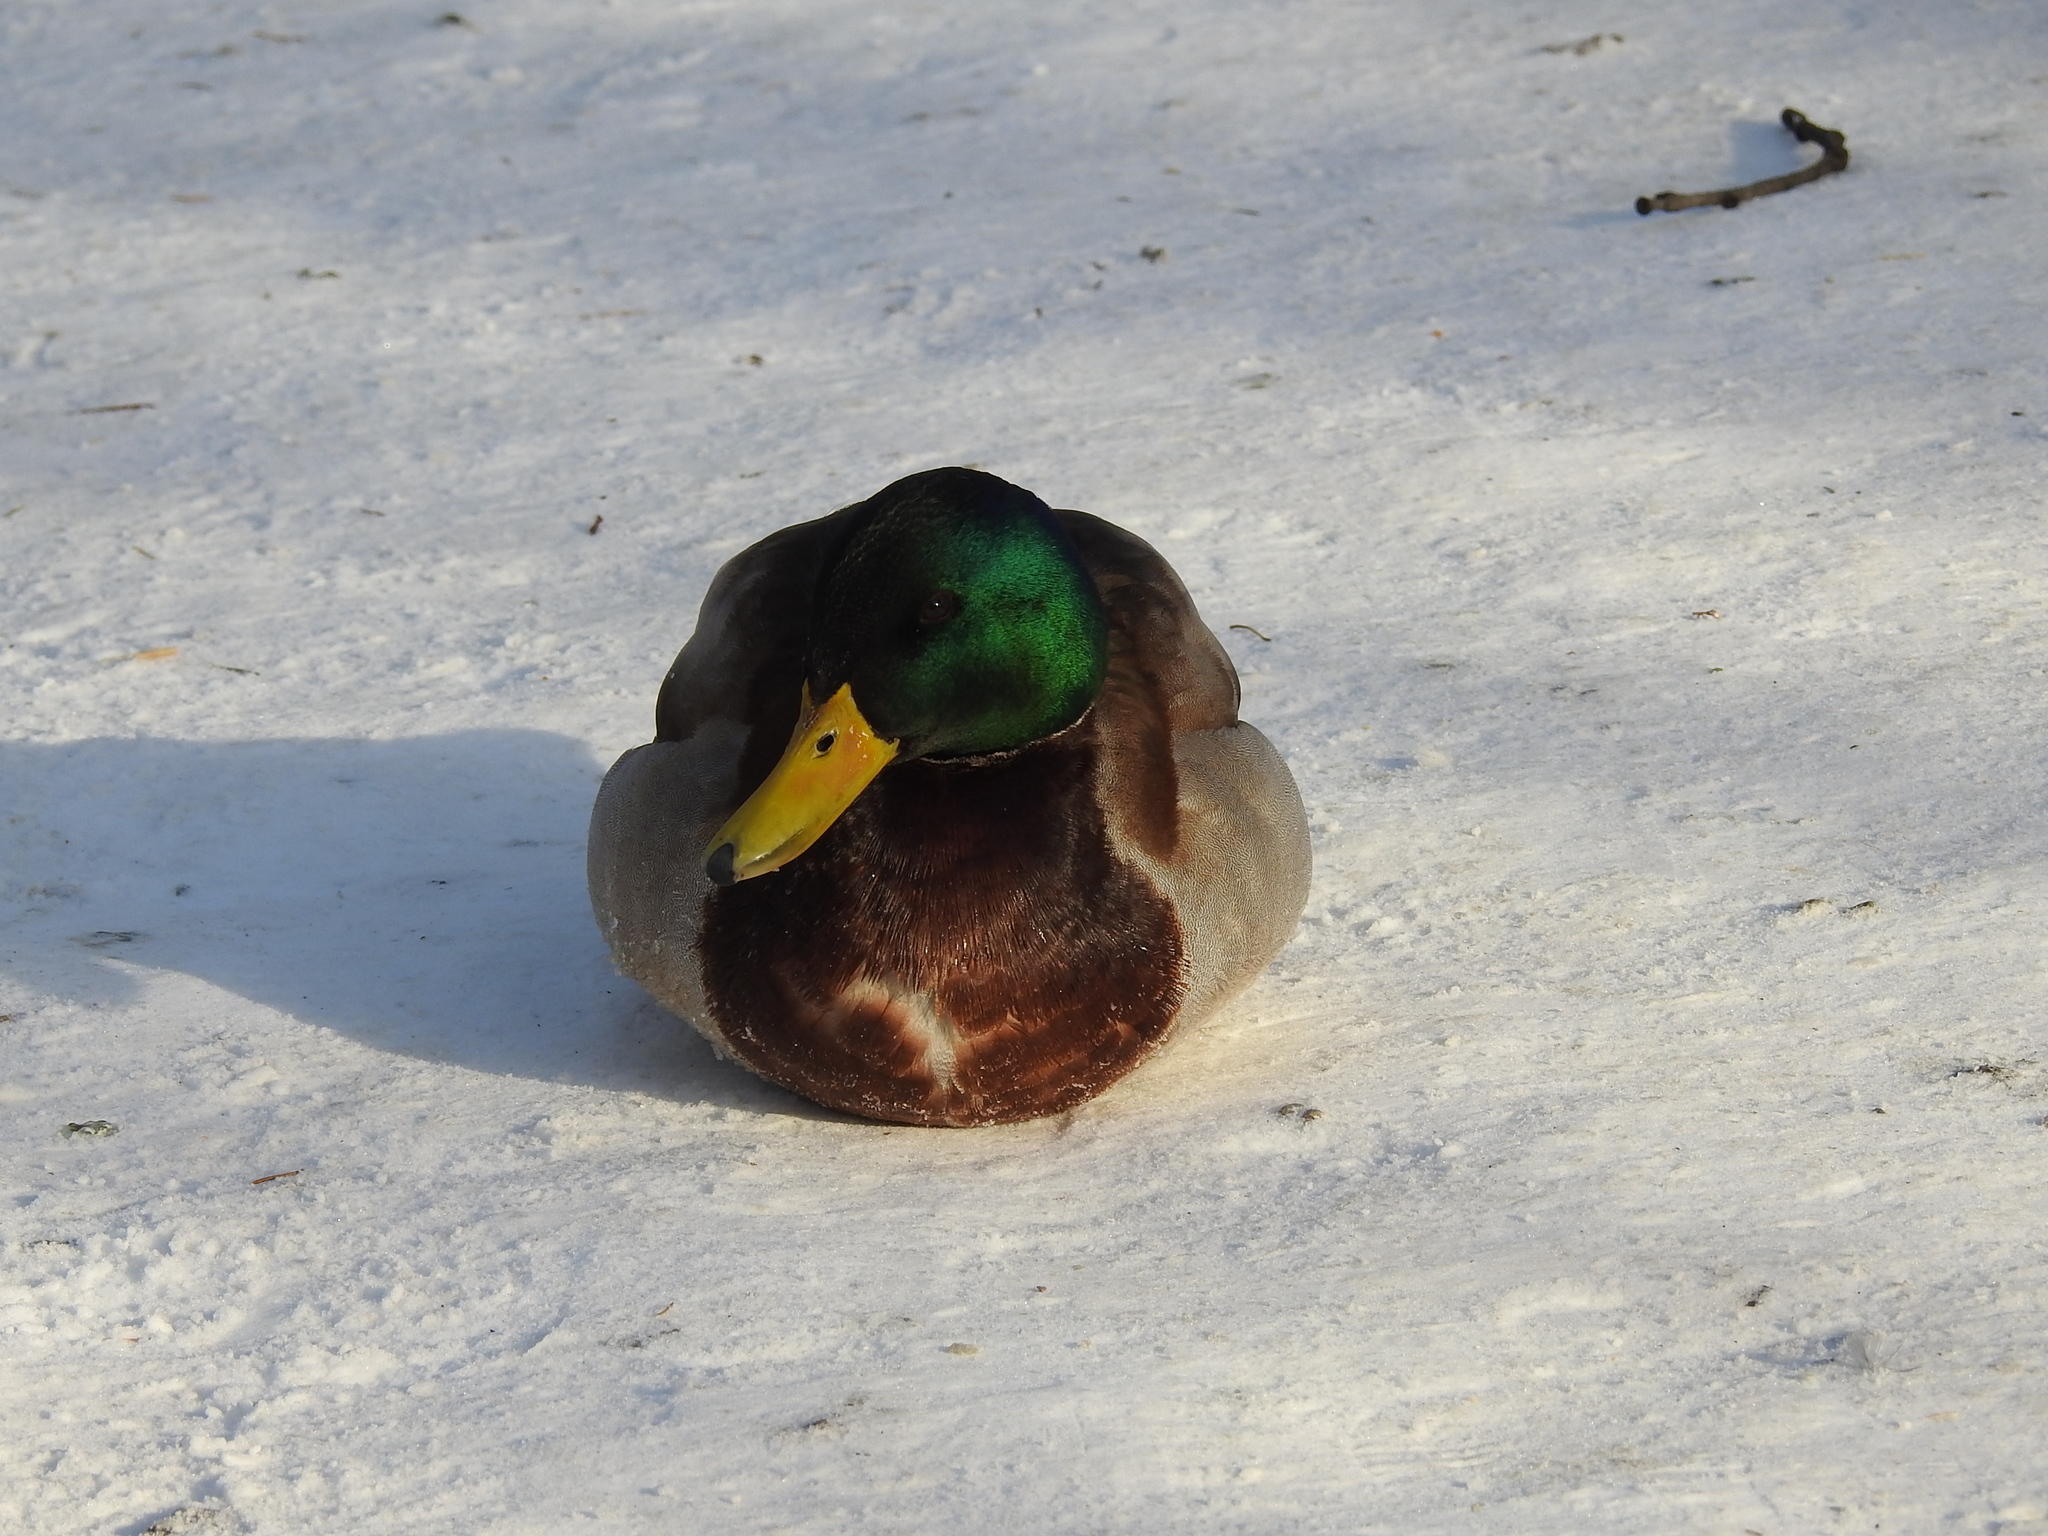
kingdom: Animalia
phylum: Chordata
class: Aves
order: Anseriformes
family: Anatidae
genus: Anas
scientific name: Anas platyrhynchos
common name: Mallard
